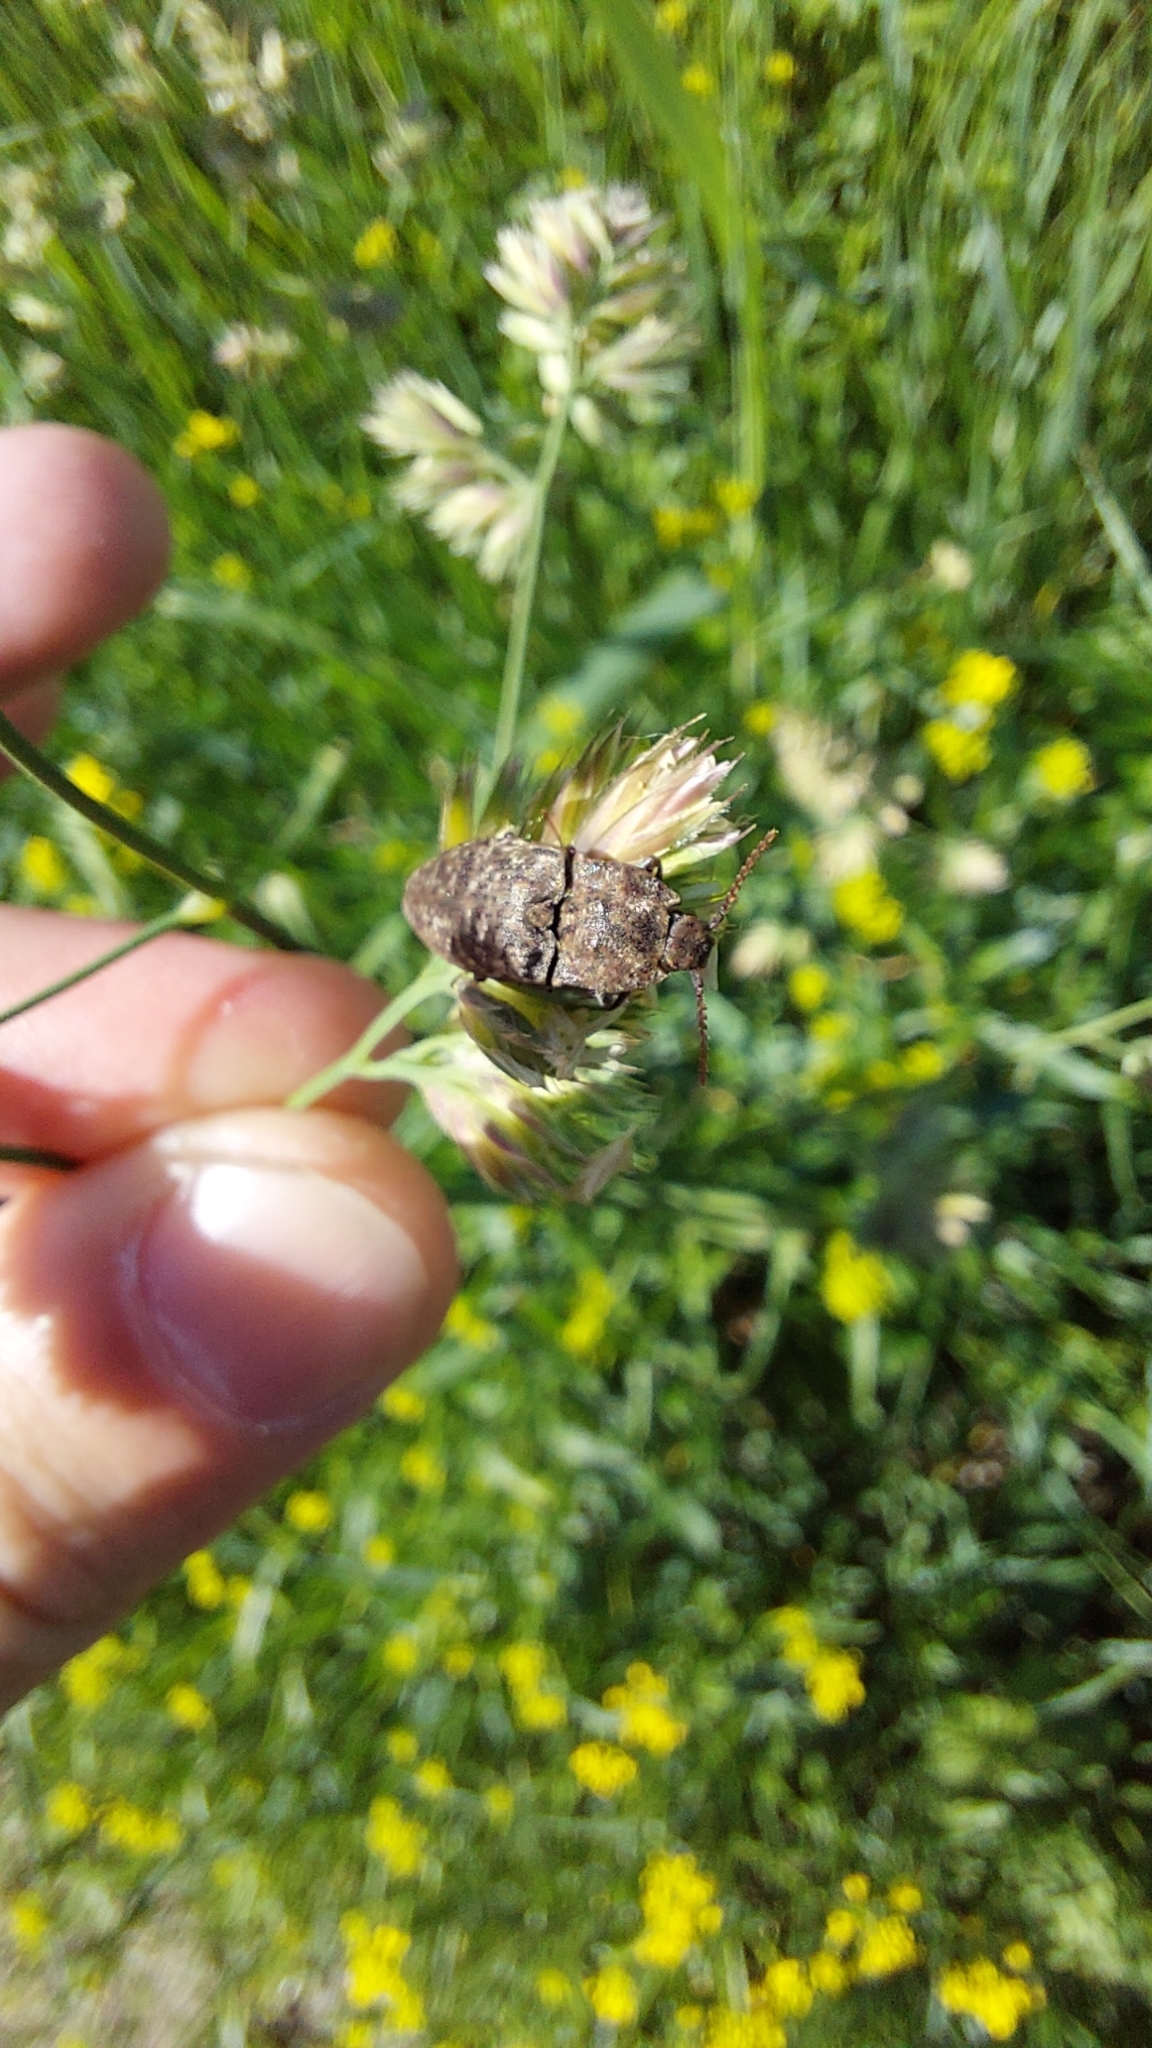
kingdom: Animalia
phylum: Arthropoda
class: Insecta
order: Coleoptera
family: Elateridae
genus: Agrypnus
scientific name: Agrypnus murinus
